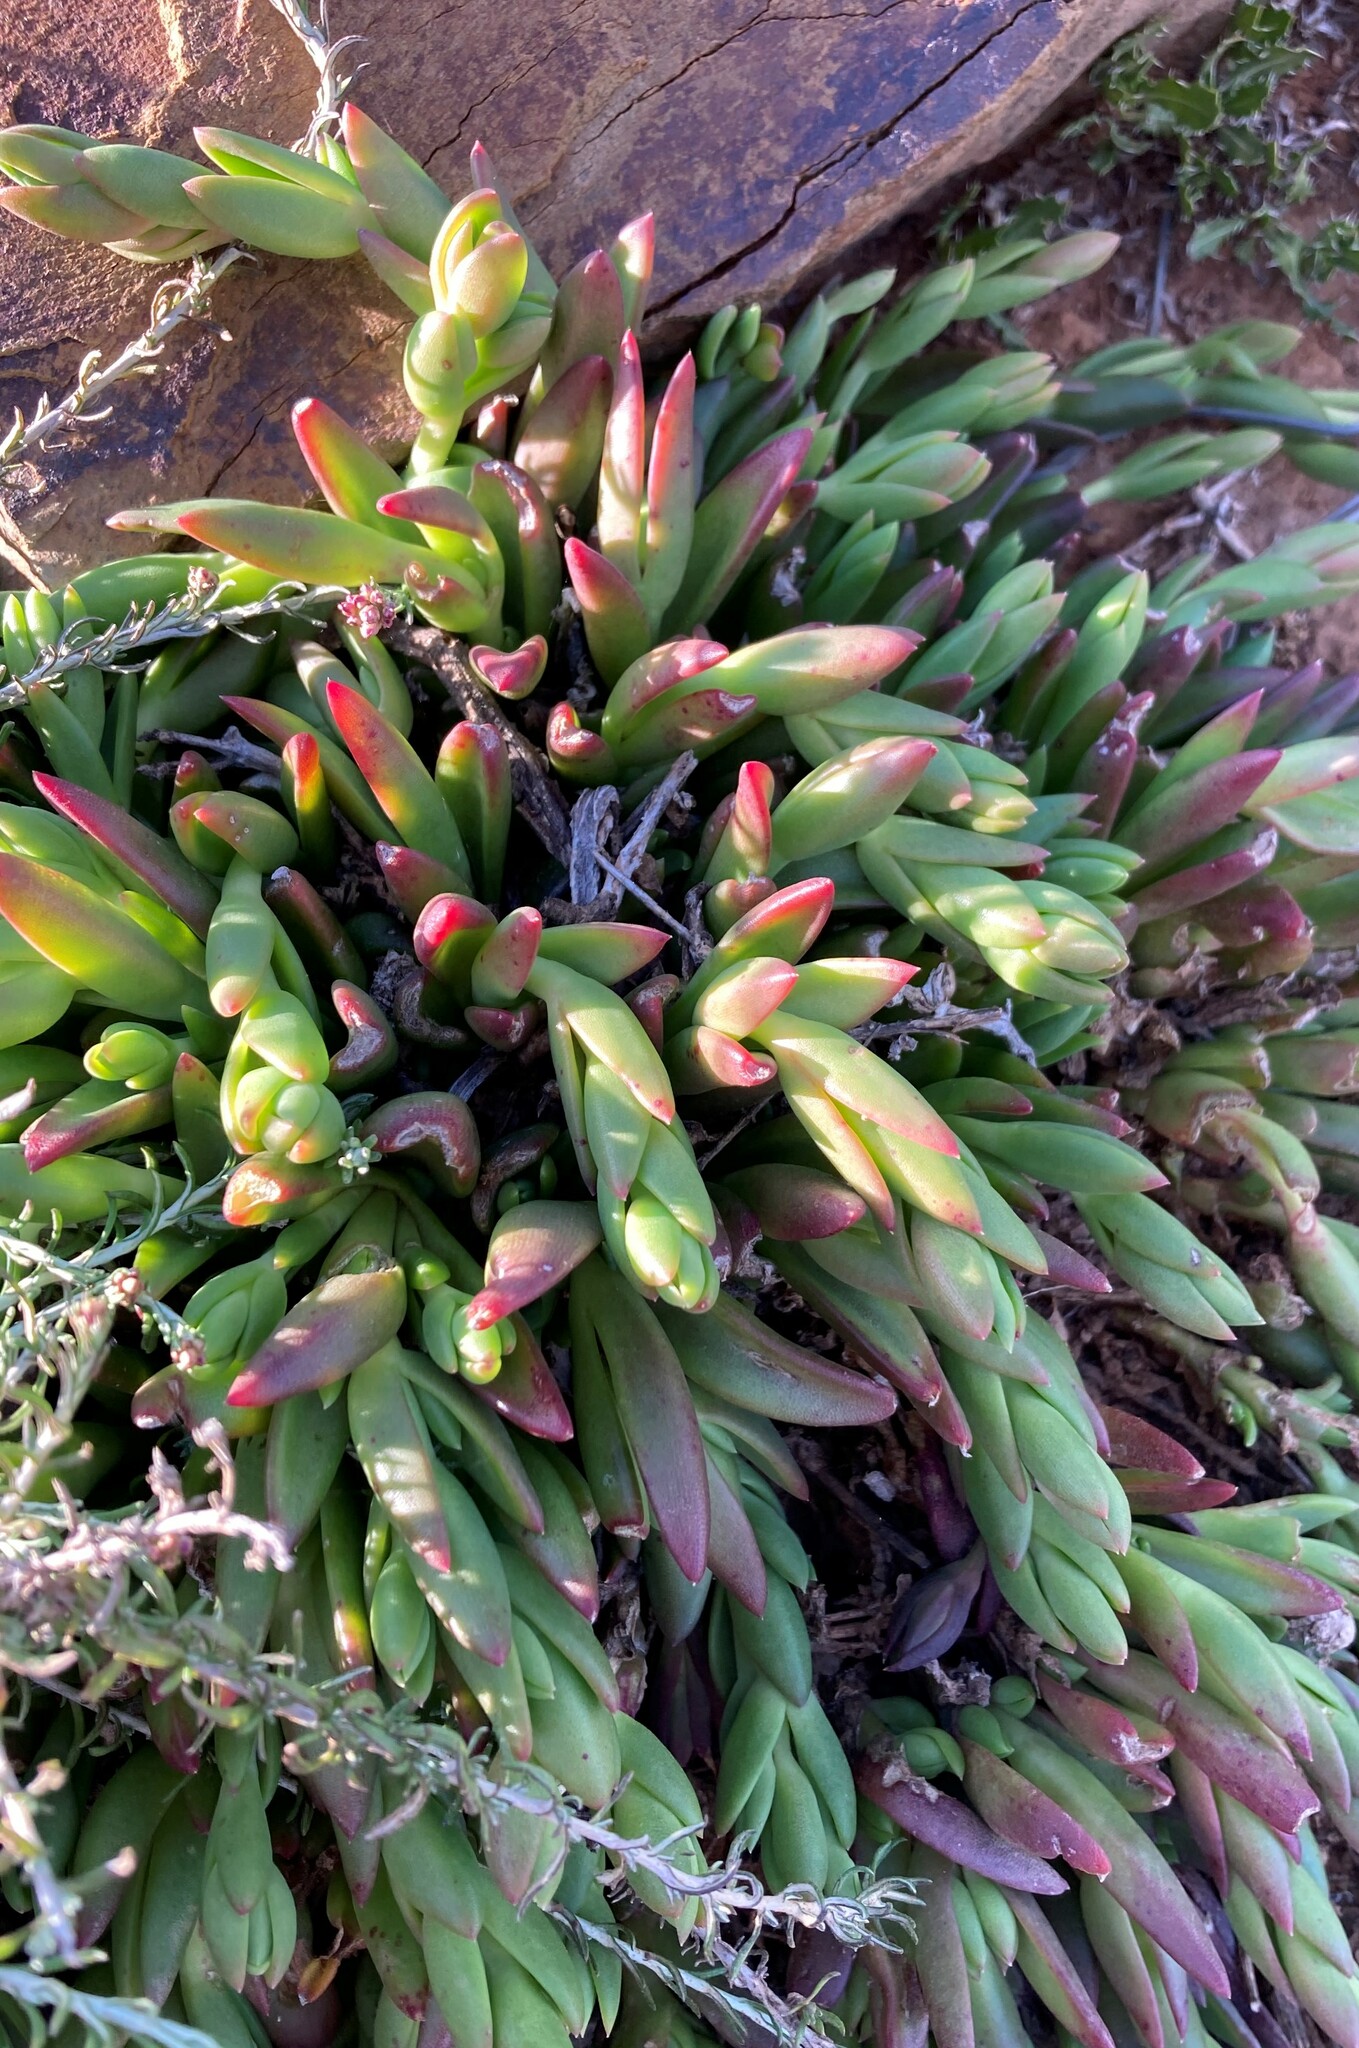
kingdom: Plantae
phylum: Tracheophyta
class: Magnoliopsida
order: Caryophyllales
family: Aizoaceae
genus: Mesembryanthemum
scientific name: Mesembryanthemum crassicaule
